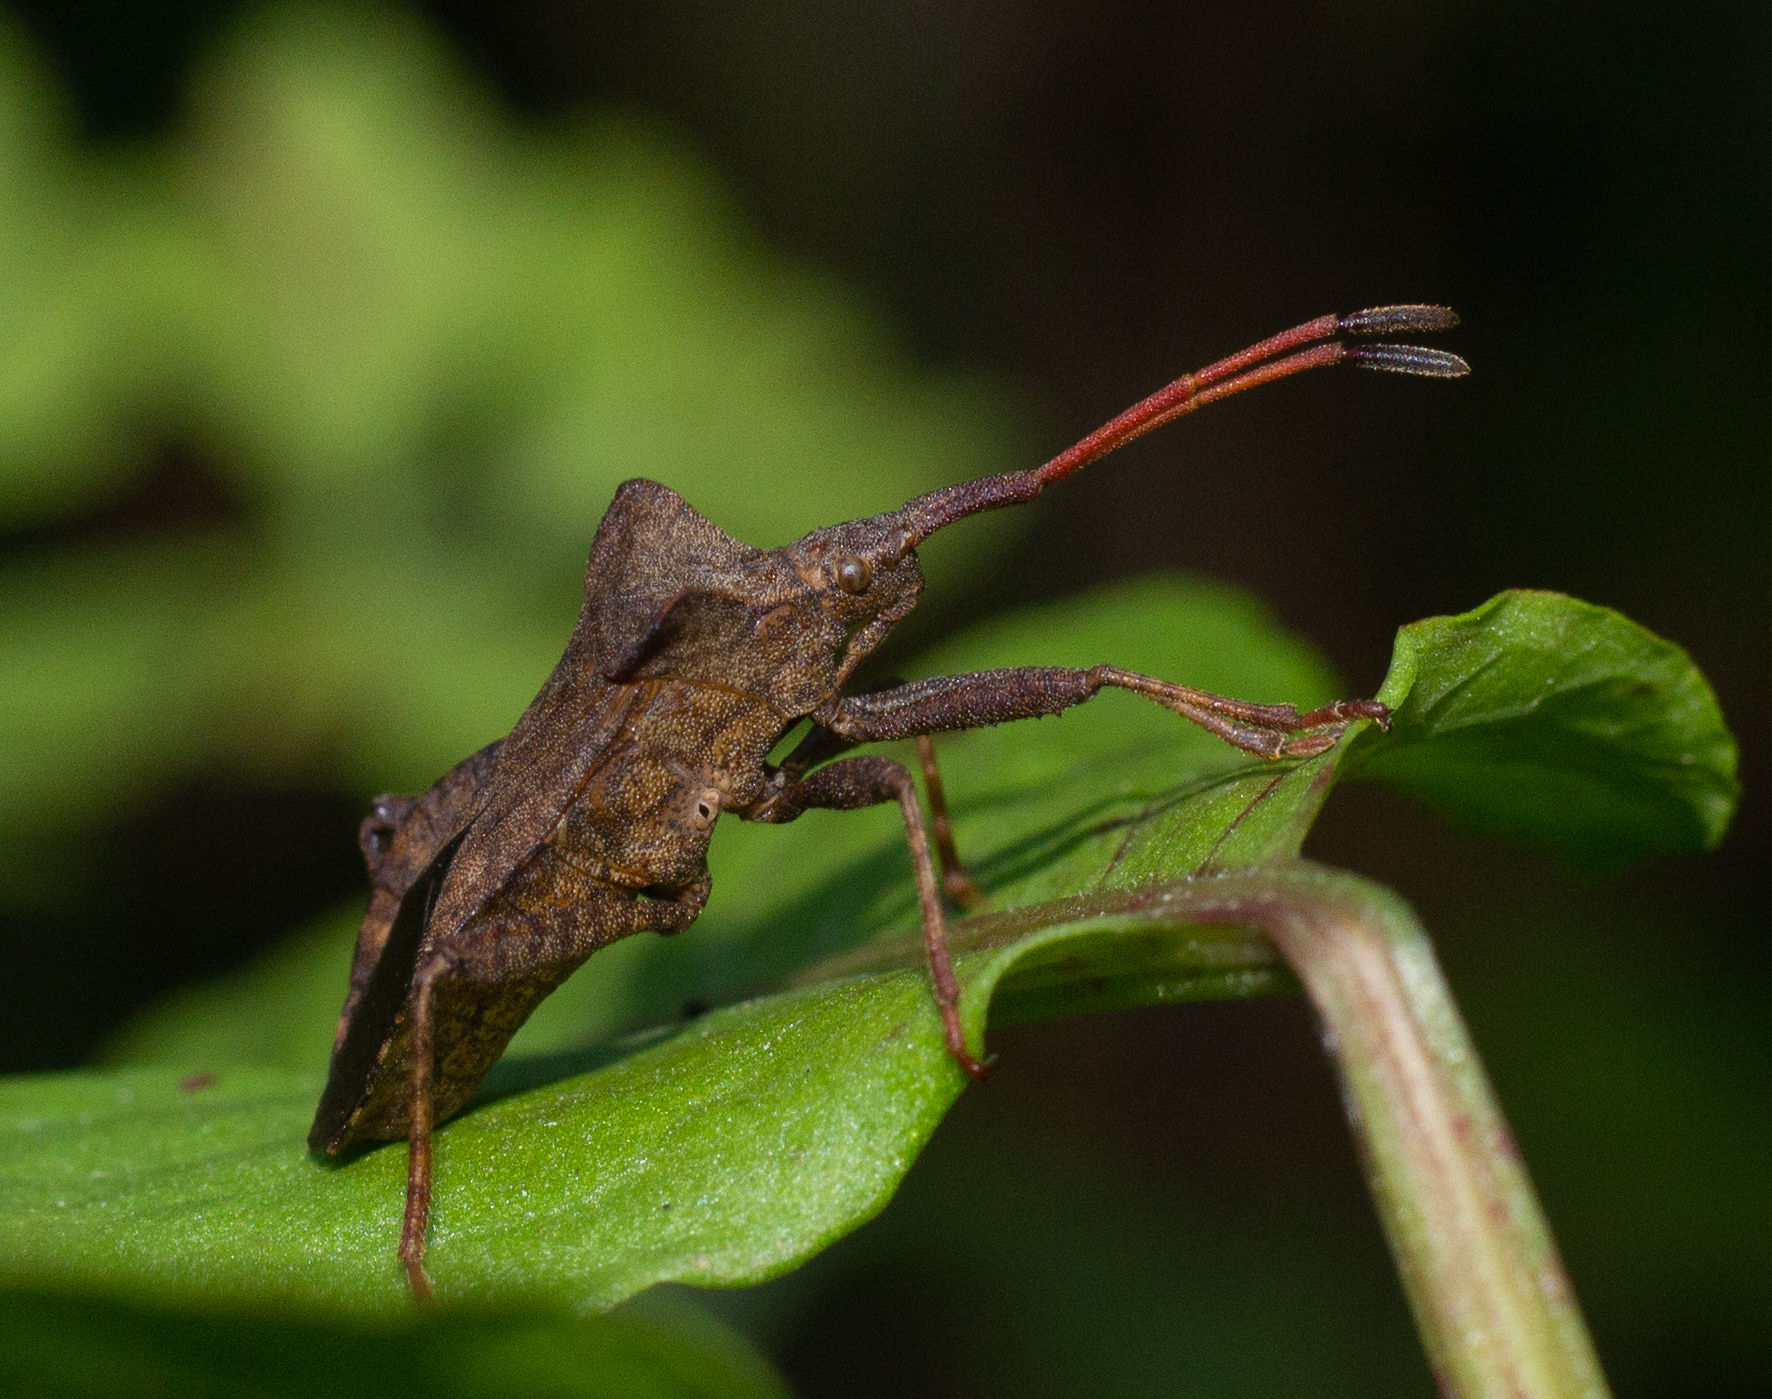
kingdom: Animalia
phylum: Arthropoda
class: Insecta
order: Hemiptera
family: Coreidae
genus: Coreus
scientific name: Coreus marginatus
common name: Dock bug
